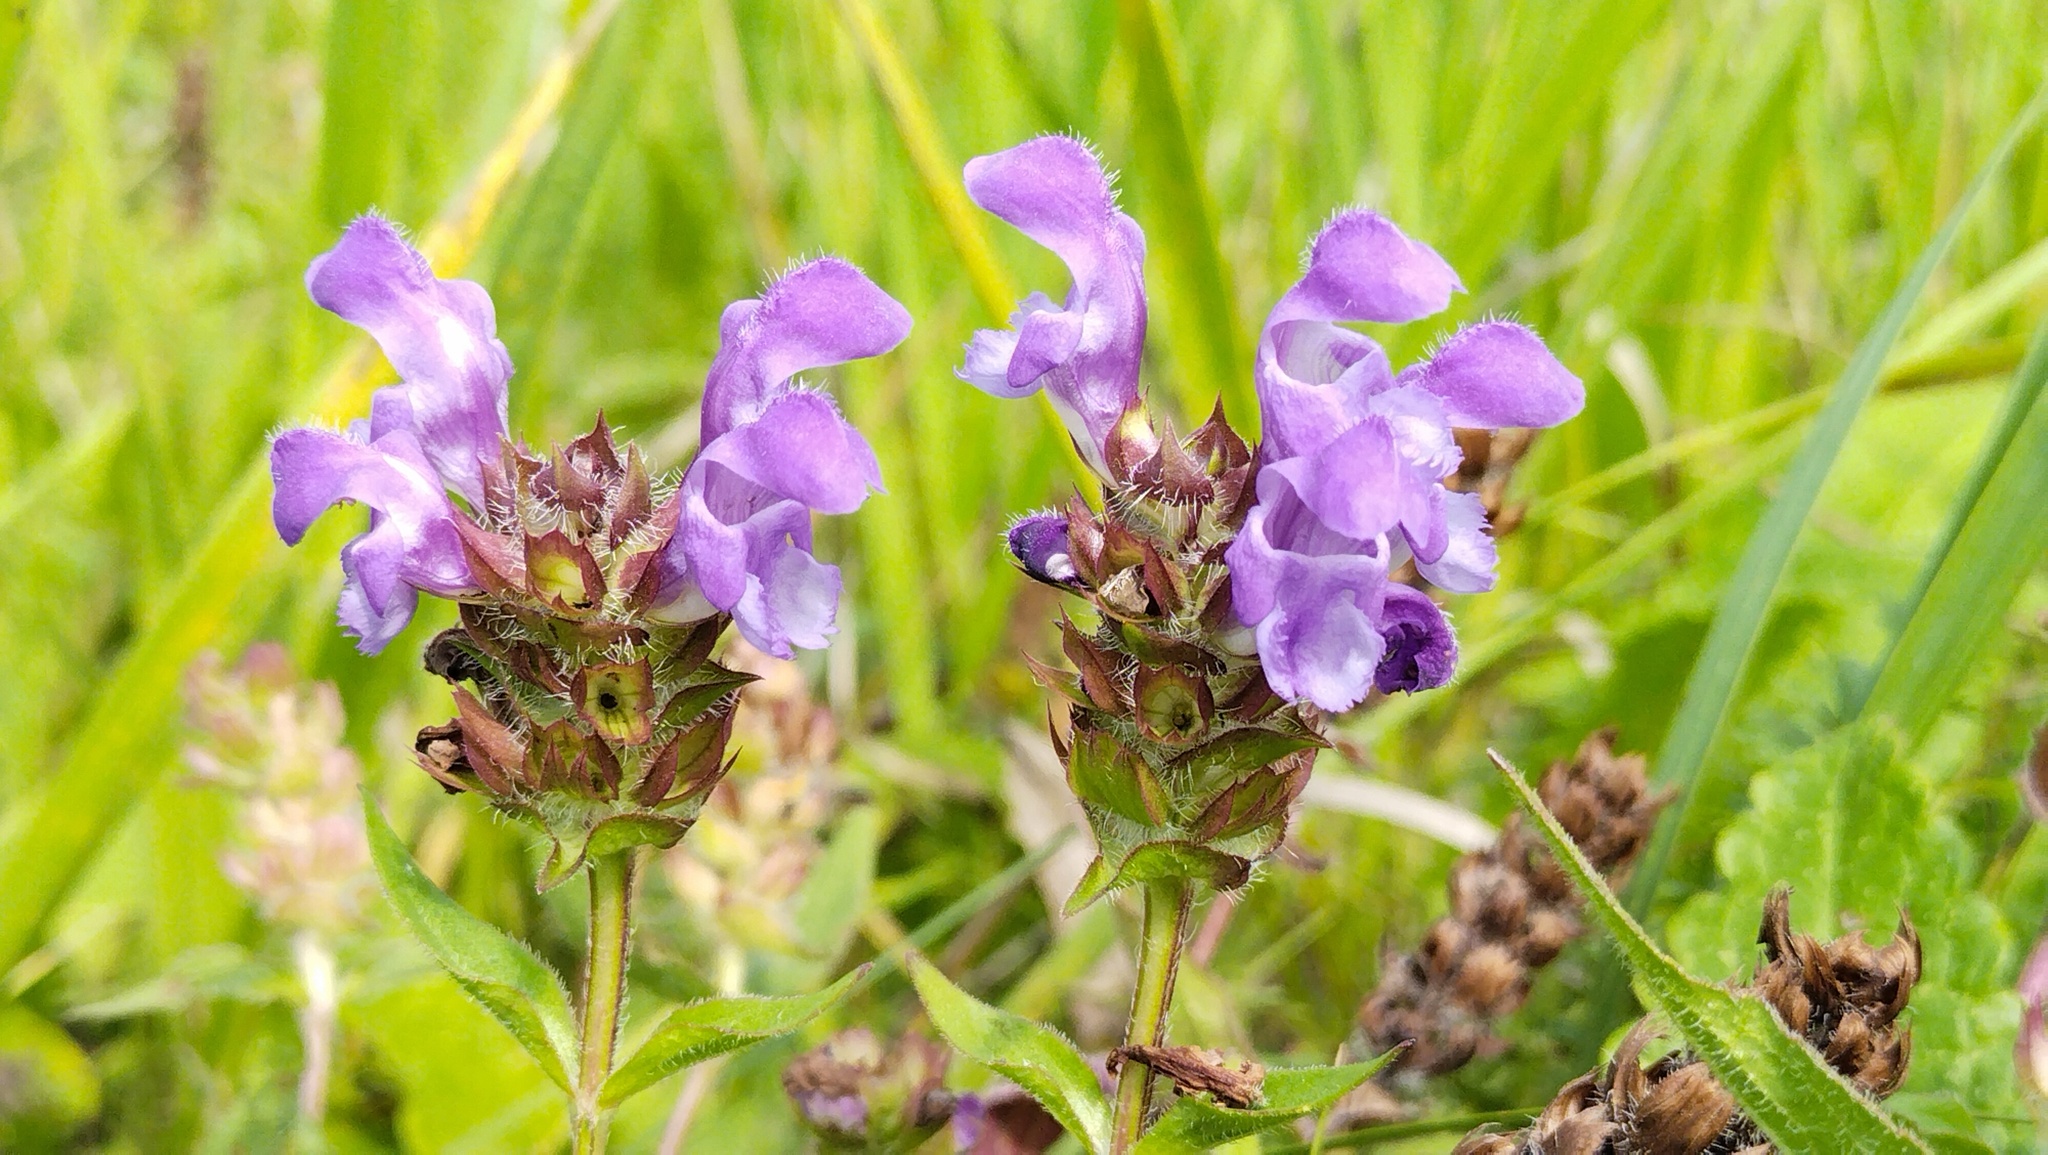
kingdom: Plantae
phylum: Tracheophyta
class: Magnoliopsida
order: Lamiales
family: Lamiaceae
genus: Prunella
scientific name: Prunella grandiflora
